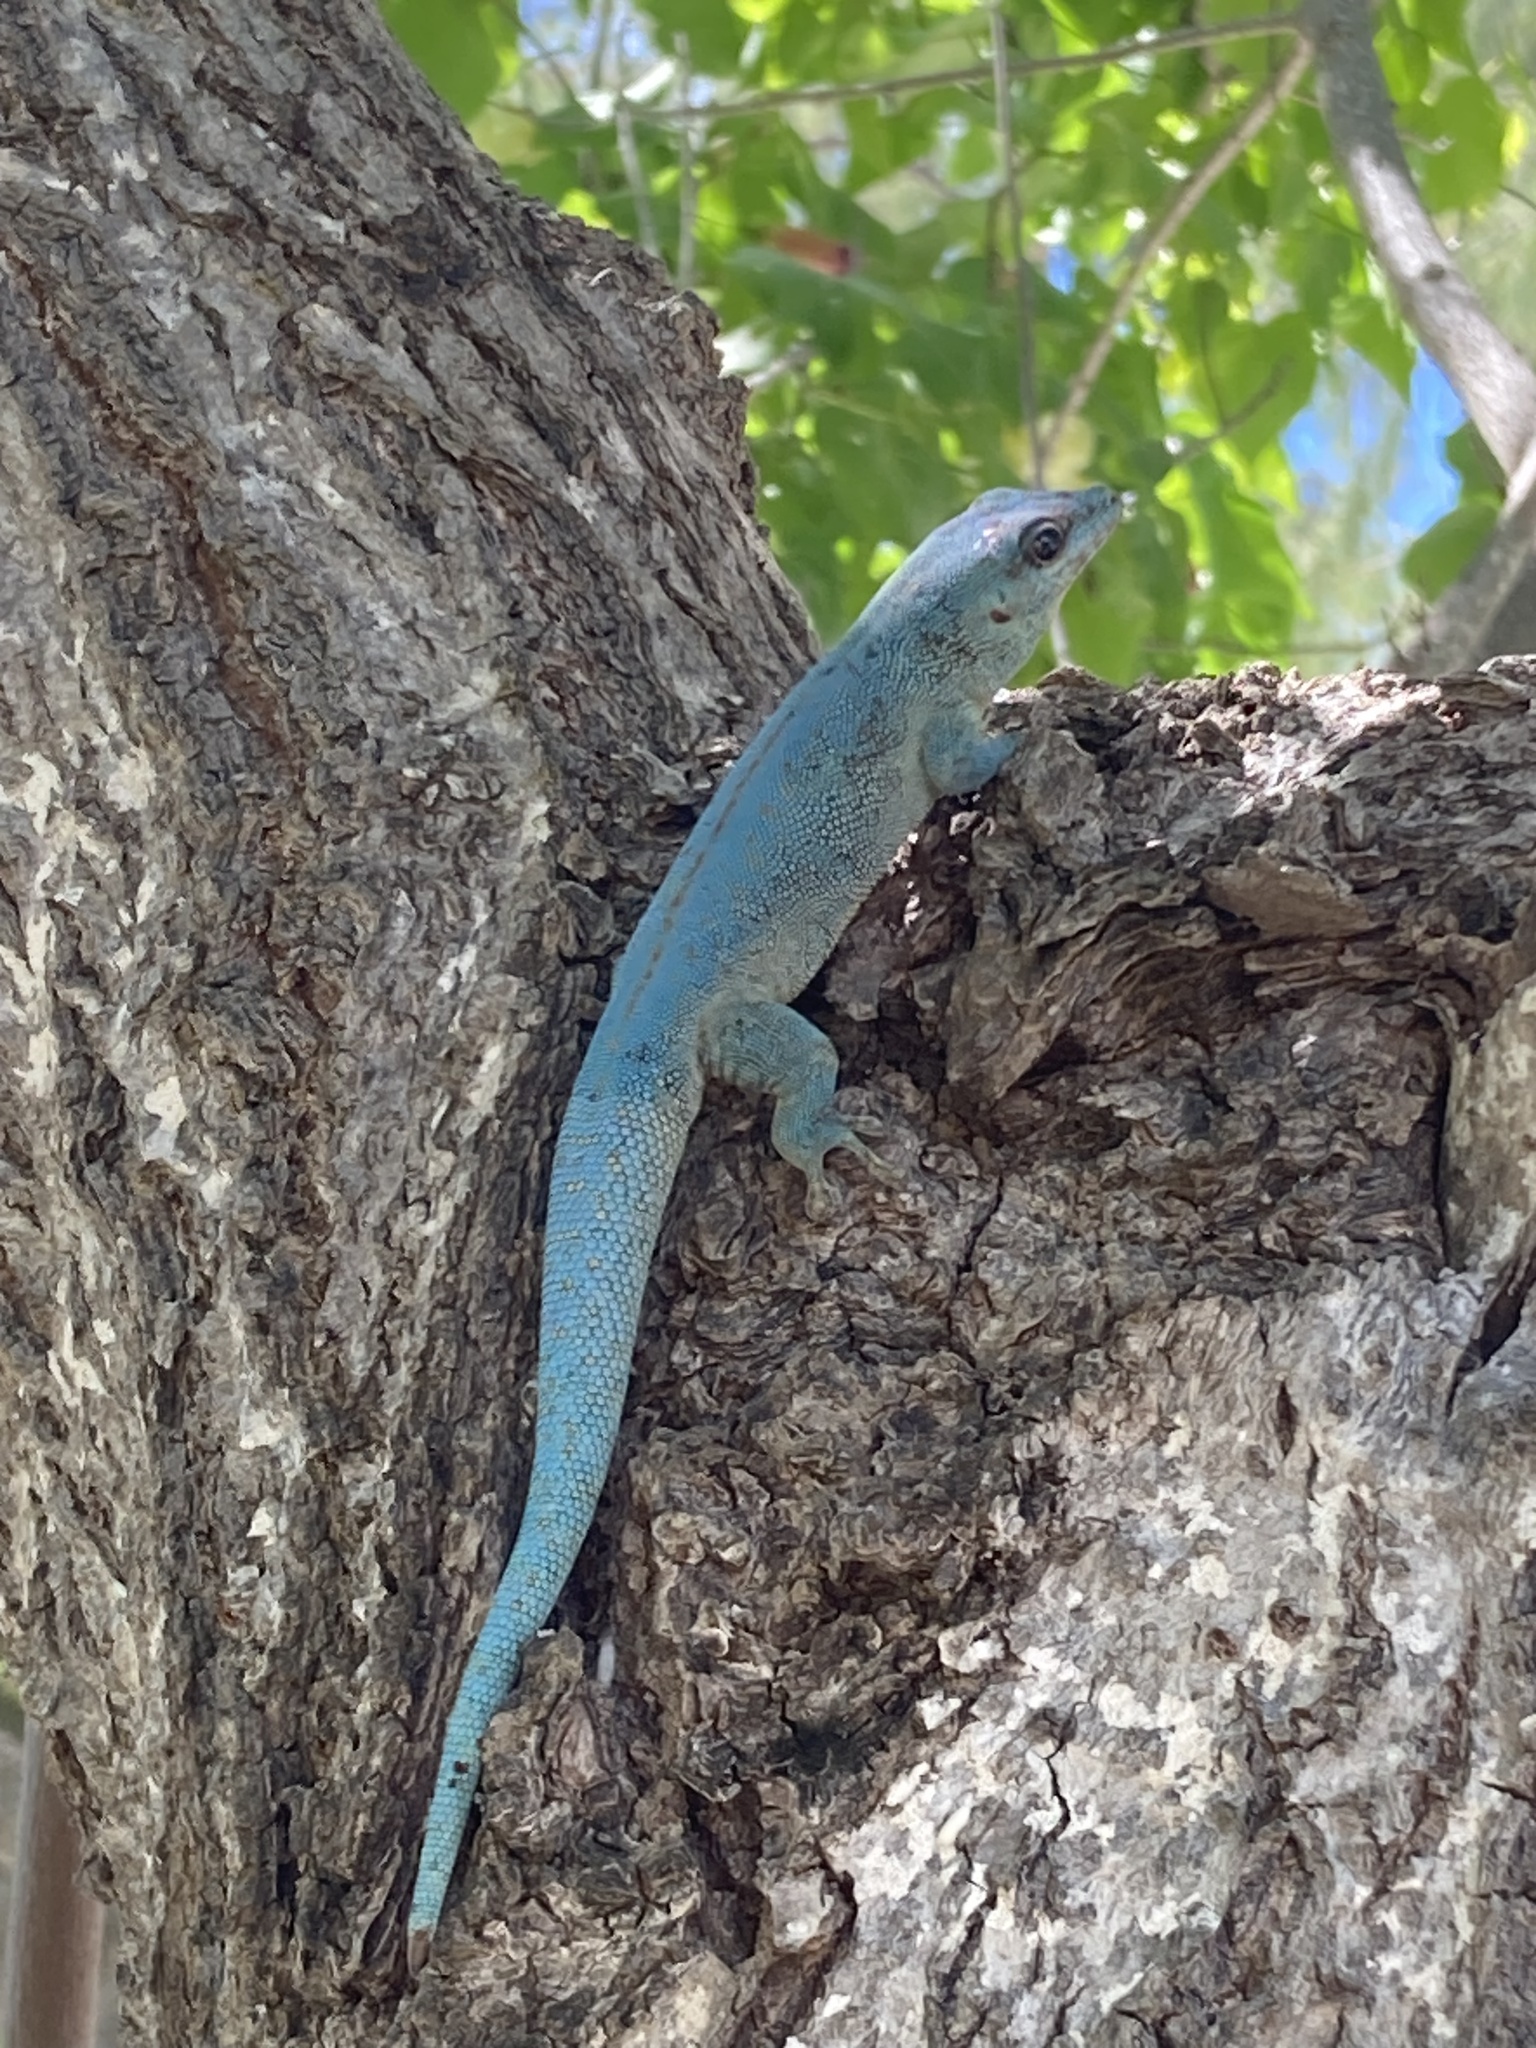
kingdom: Animalia
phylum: Chordata
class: Squamata
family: Gekkonidae
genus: Phelsuma
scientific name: Phelsuma abbotti
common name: Aldabra day gecko
